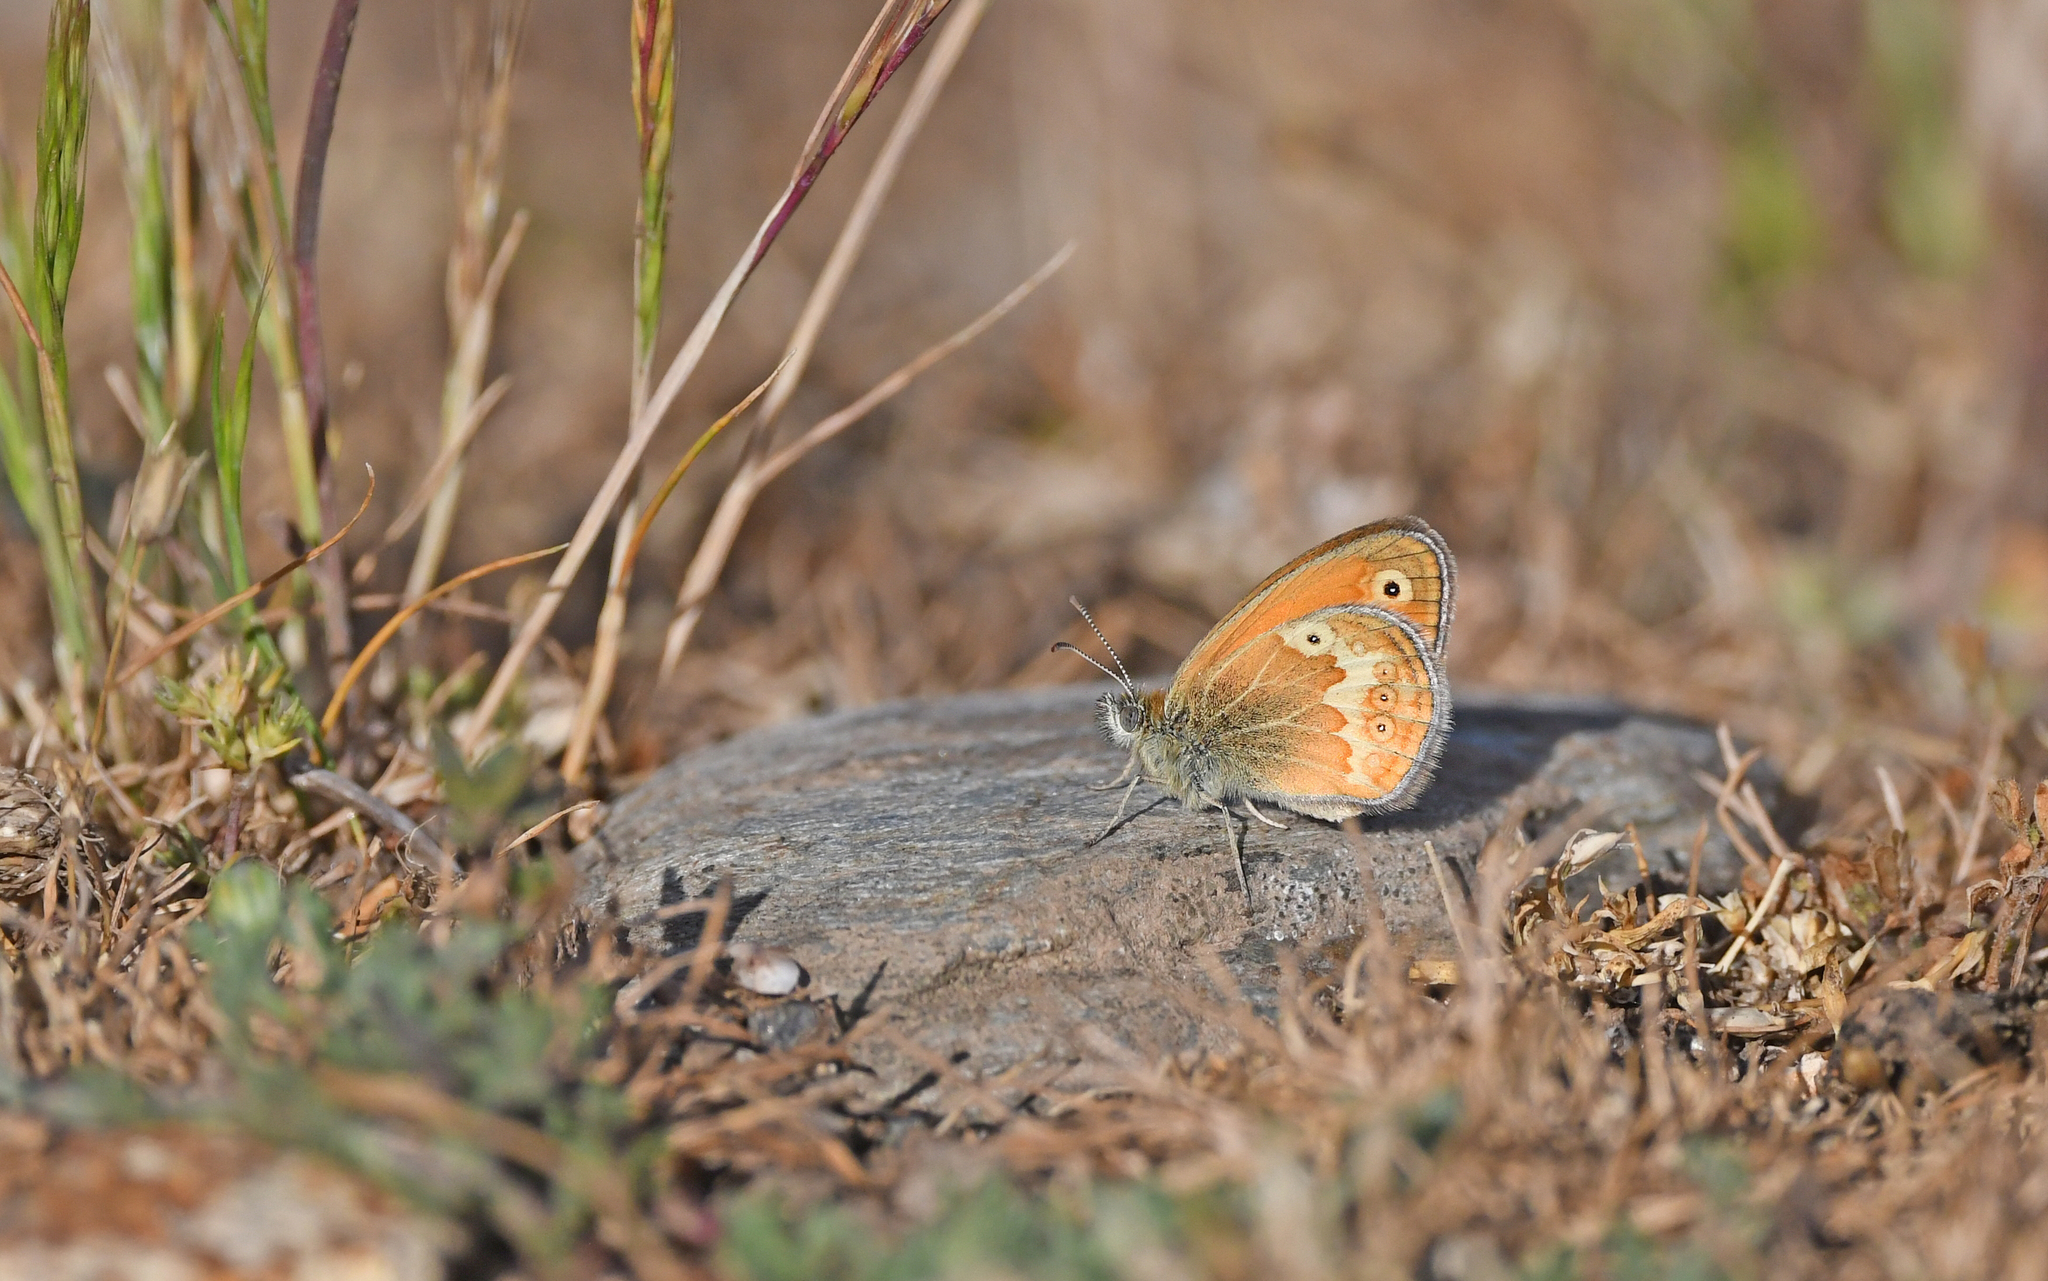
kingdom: Animalia
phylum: Arthropoda
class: Insecta
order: Lepidoptera
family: Nymphalidae
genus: Coenonympha
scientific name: Coenonympha corinna
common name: Corsican heath
